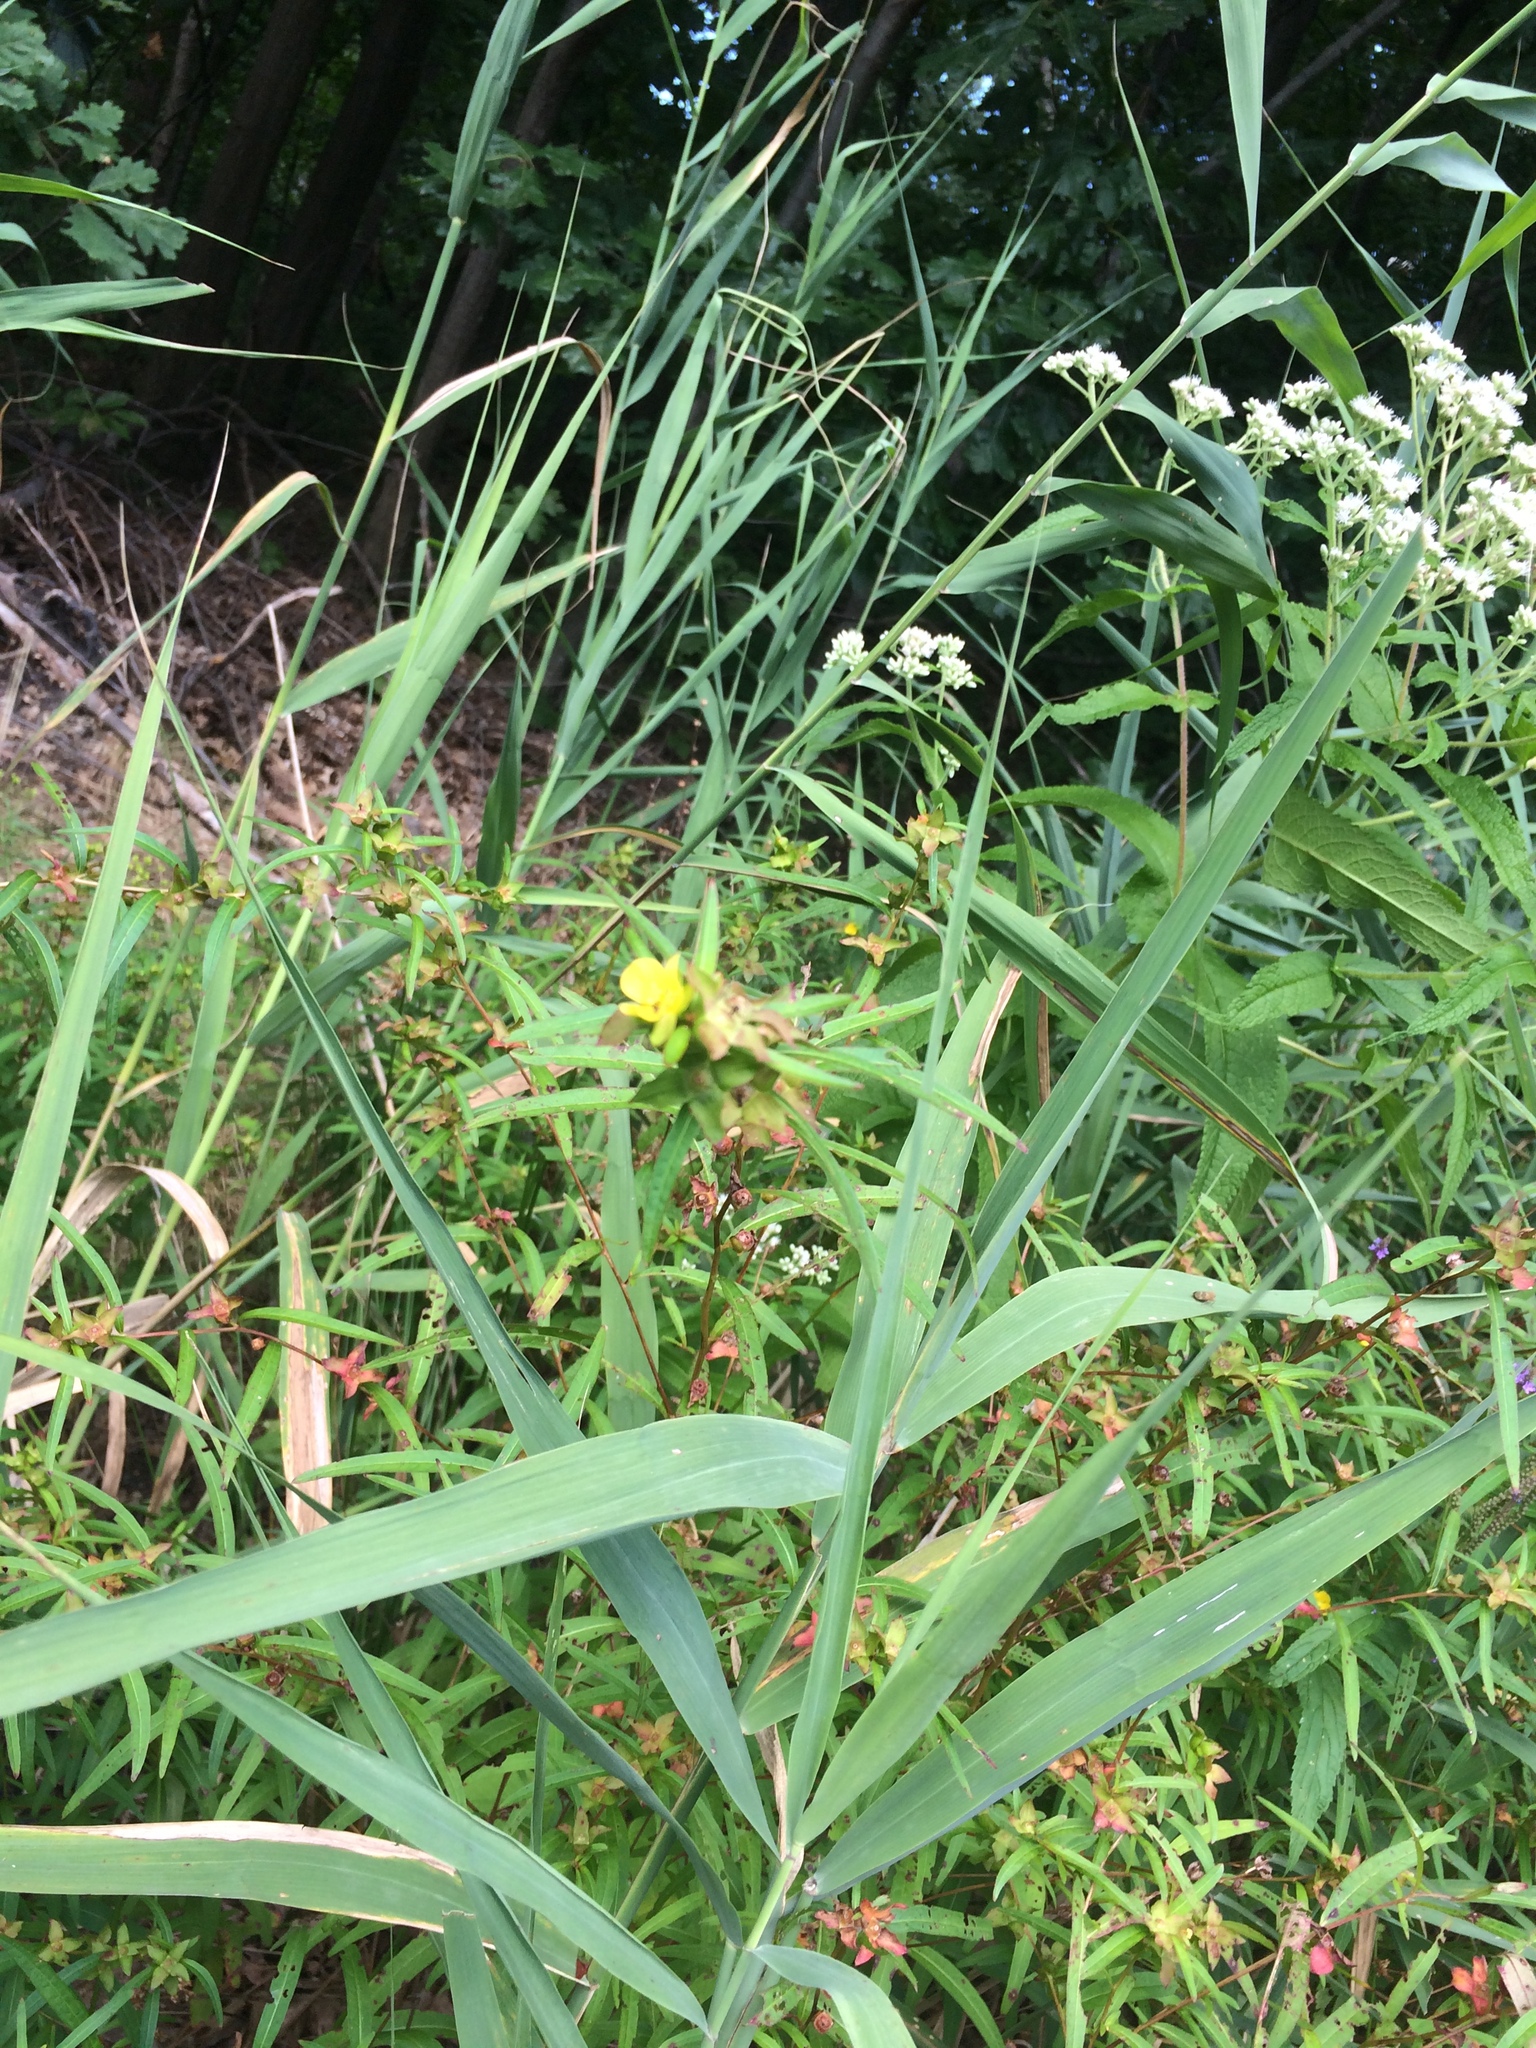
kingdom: Plantae
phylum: Tracheophyta
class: Magnoliopsida
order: Myrtales
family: Onagraceae
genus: Ludwigia
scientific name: Ludwigia alternifolia
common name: Rattlebox
